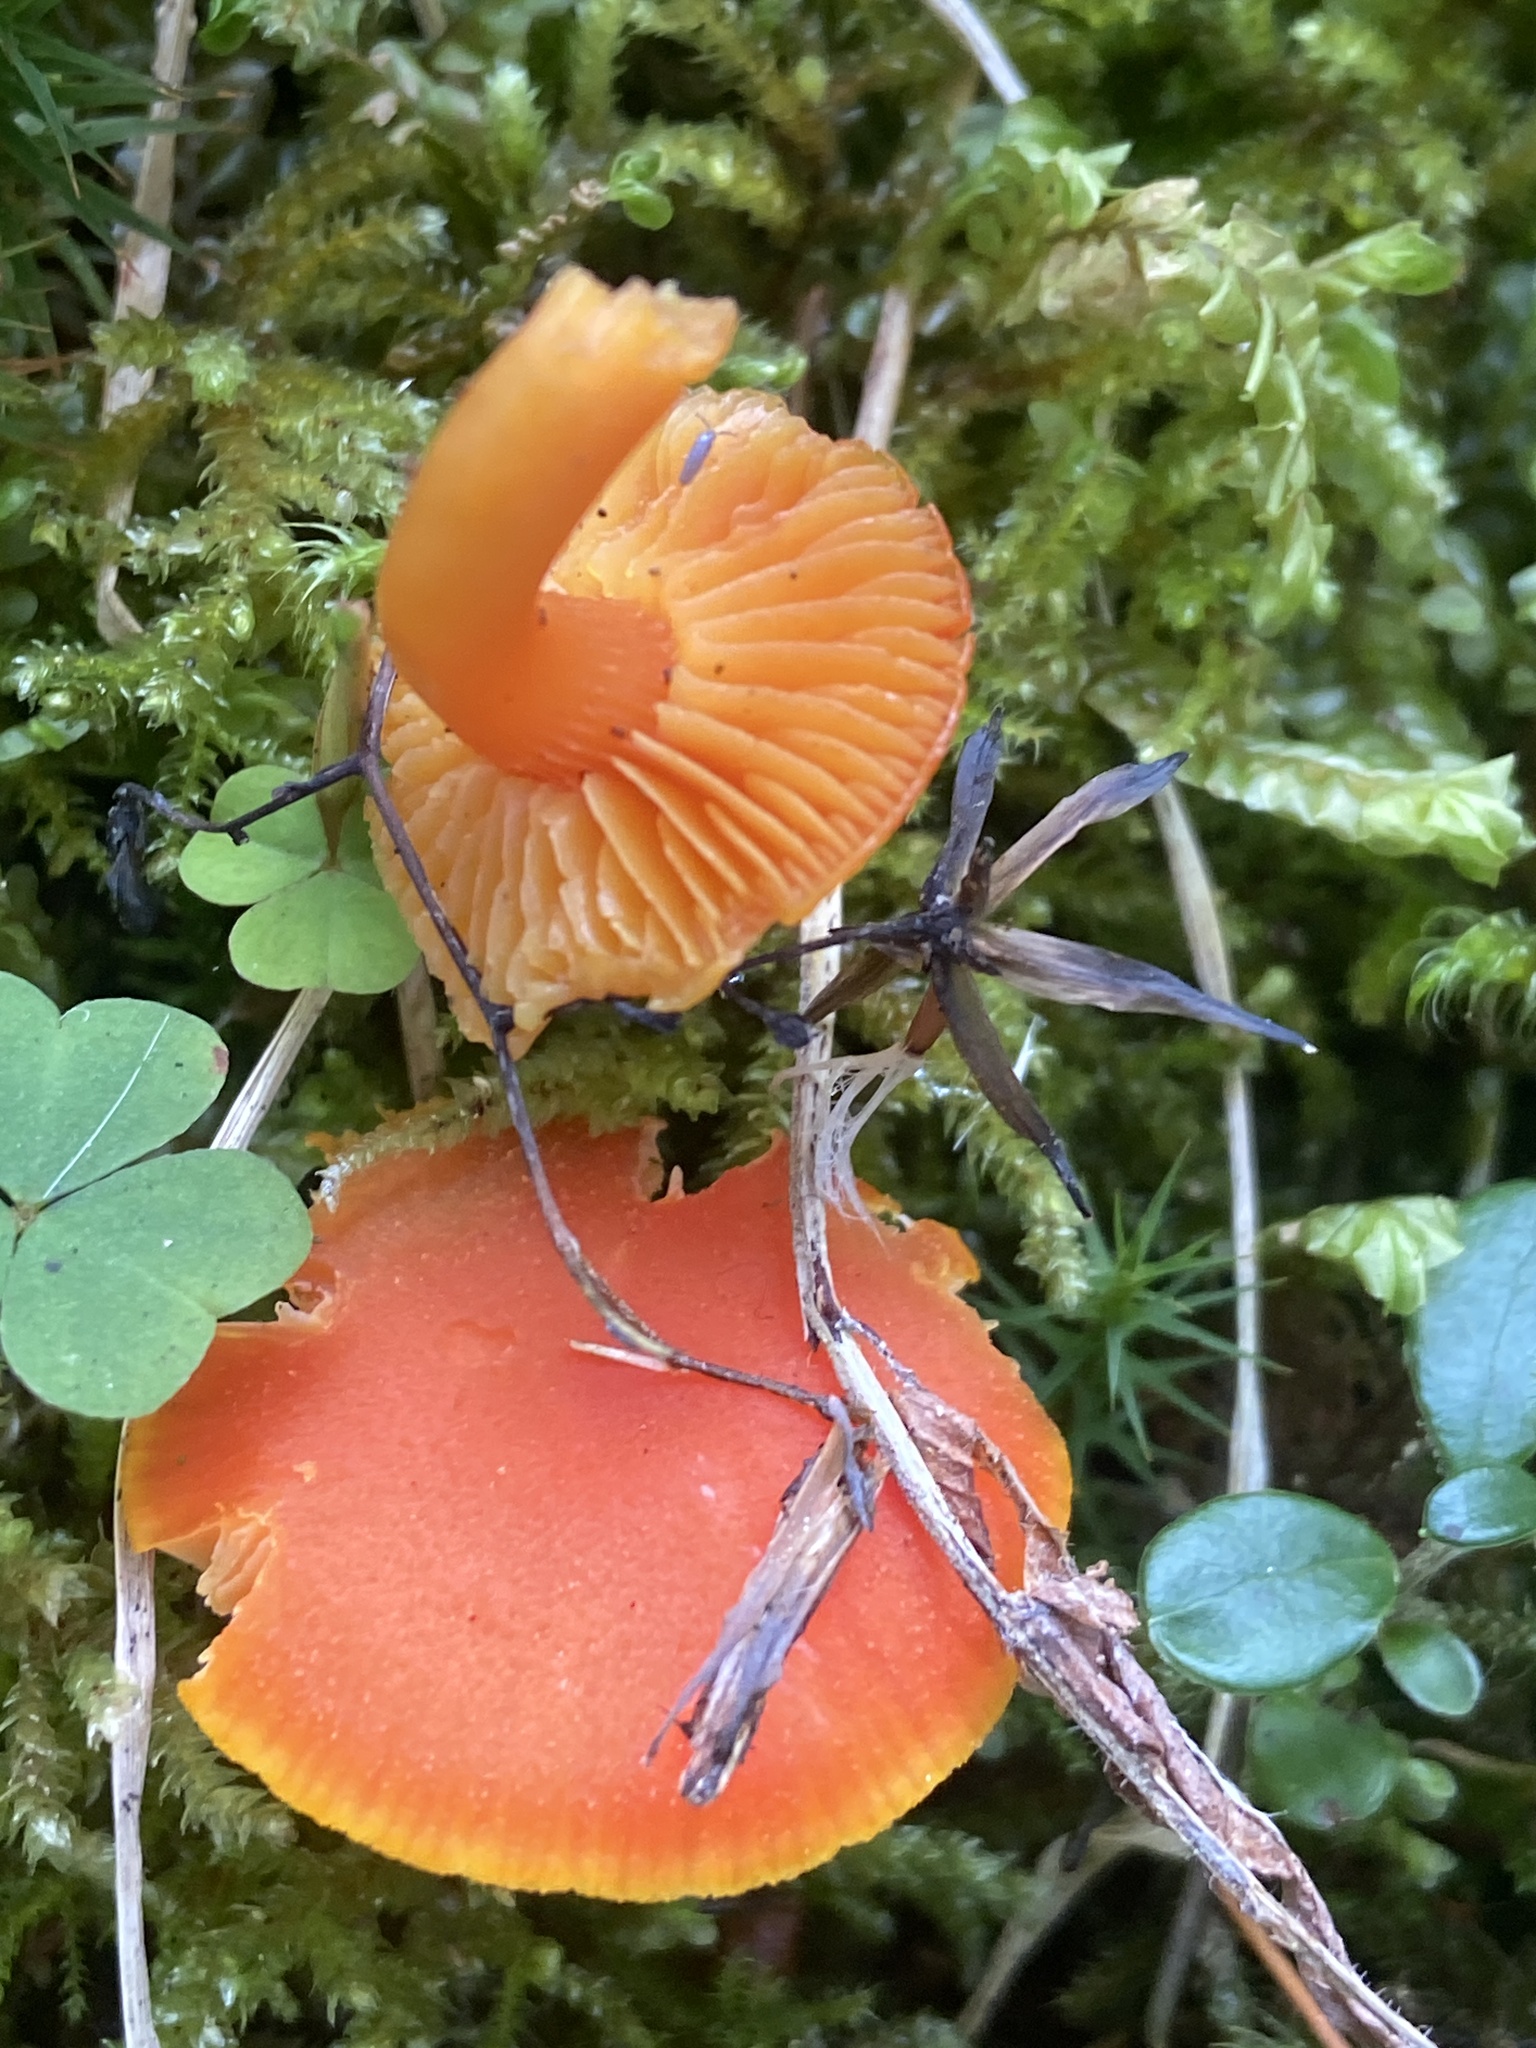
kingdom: Fungi
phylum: Basidiomycota
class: Agaricomycetes
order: Agaricales
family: Hygrophoraceae
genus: Hygrocybe
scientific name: Hygrocybe reidii
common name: Honey waxcap
